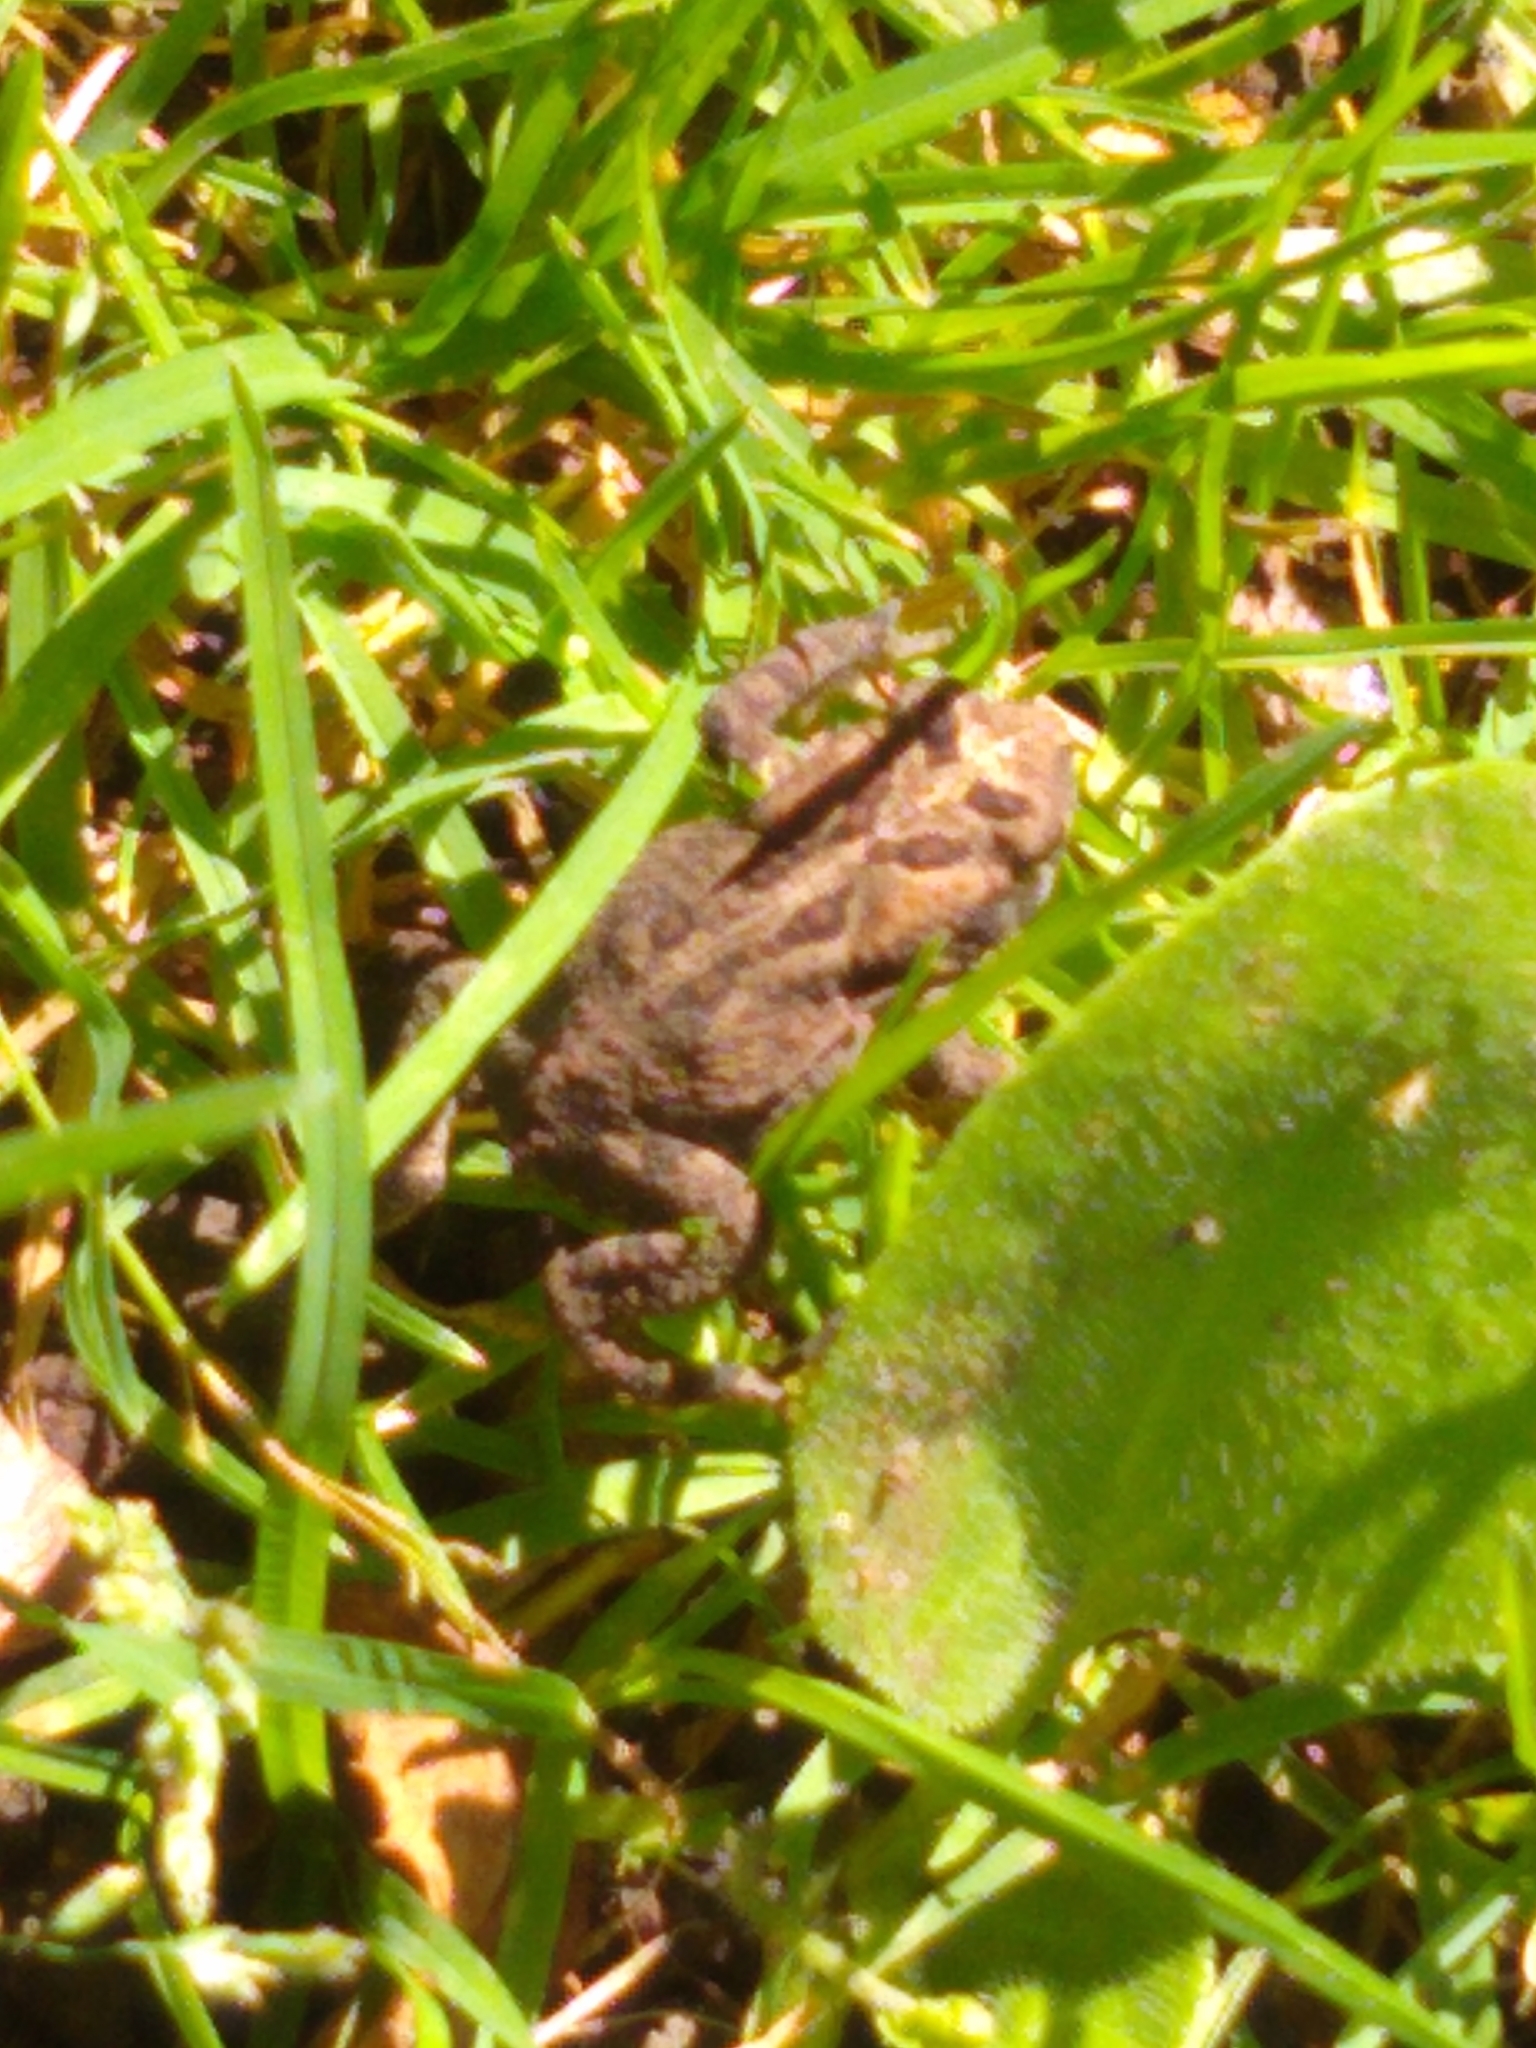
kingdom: Animalia
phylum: Chordata
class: Amphibia
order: Anura
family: Bufonidae
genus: Anaxyrus
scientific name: Anaxyrus americanus
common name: American toad
